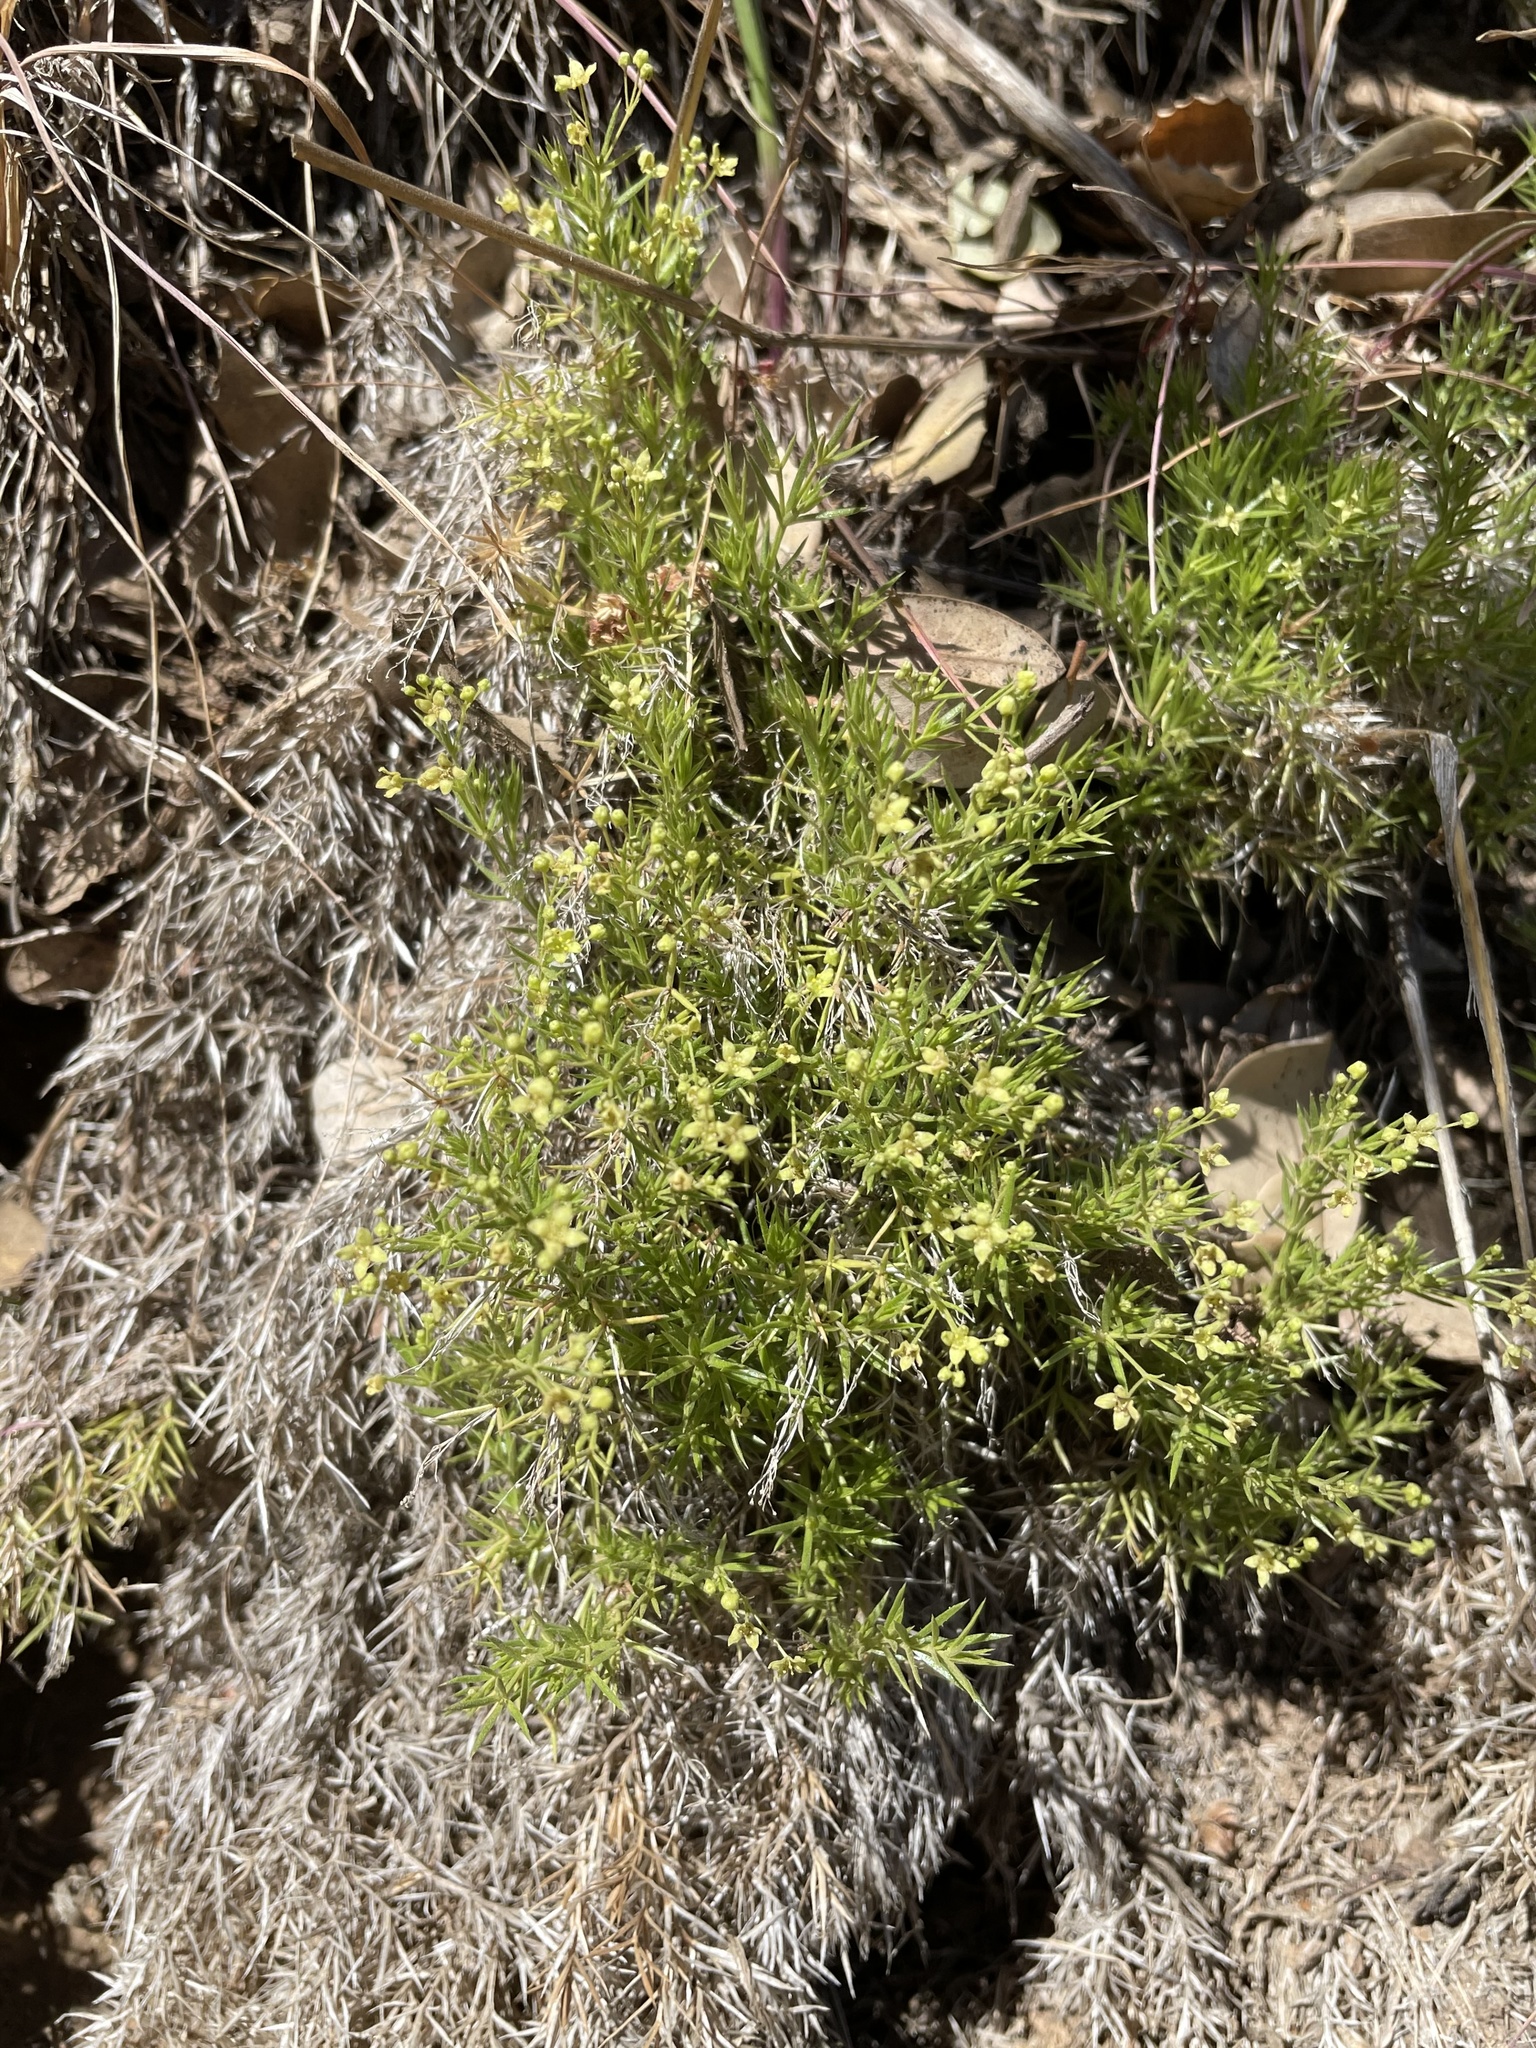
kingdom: Plantae
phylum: Tracheophyta
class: Magnoliopsida
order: Gentianales
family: Rubiaceae
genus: Galium
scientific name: Galium andrewsii
